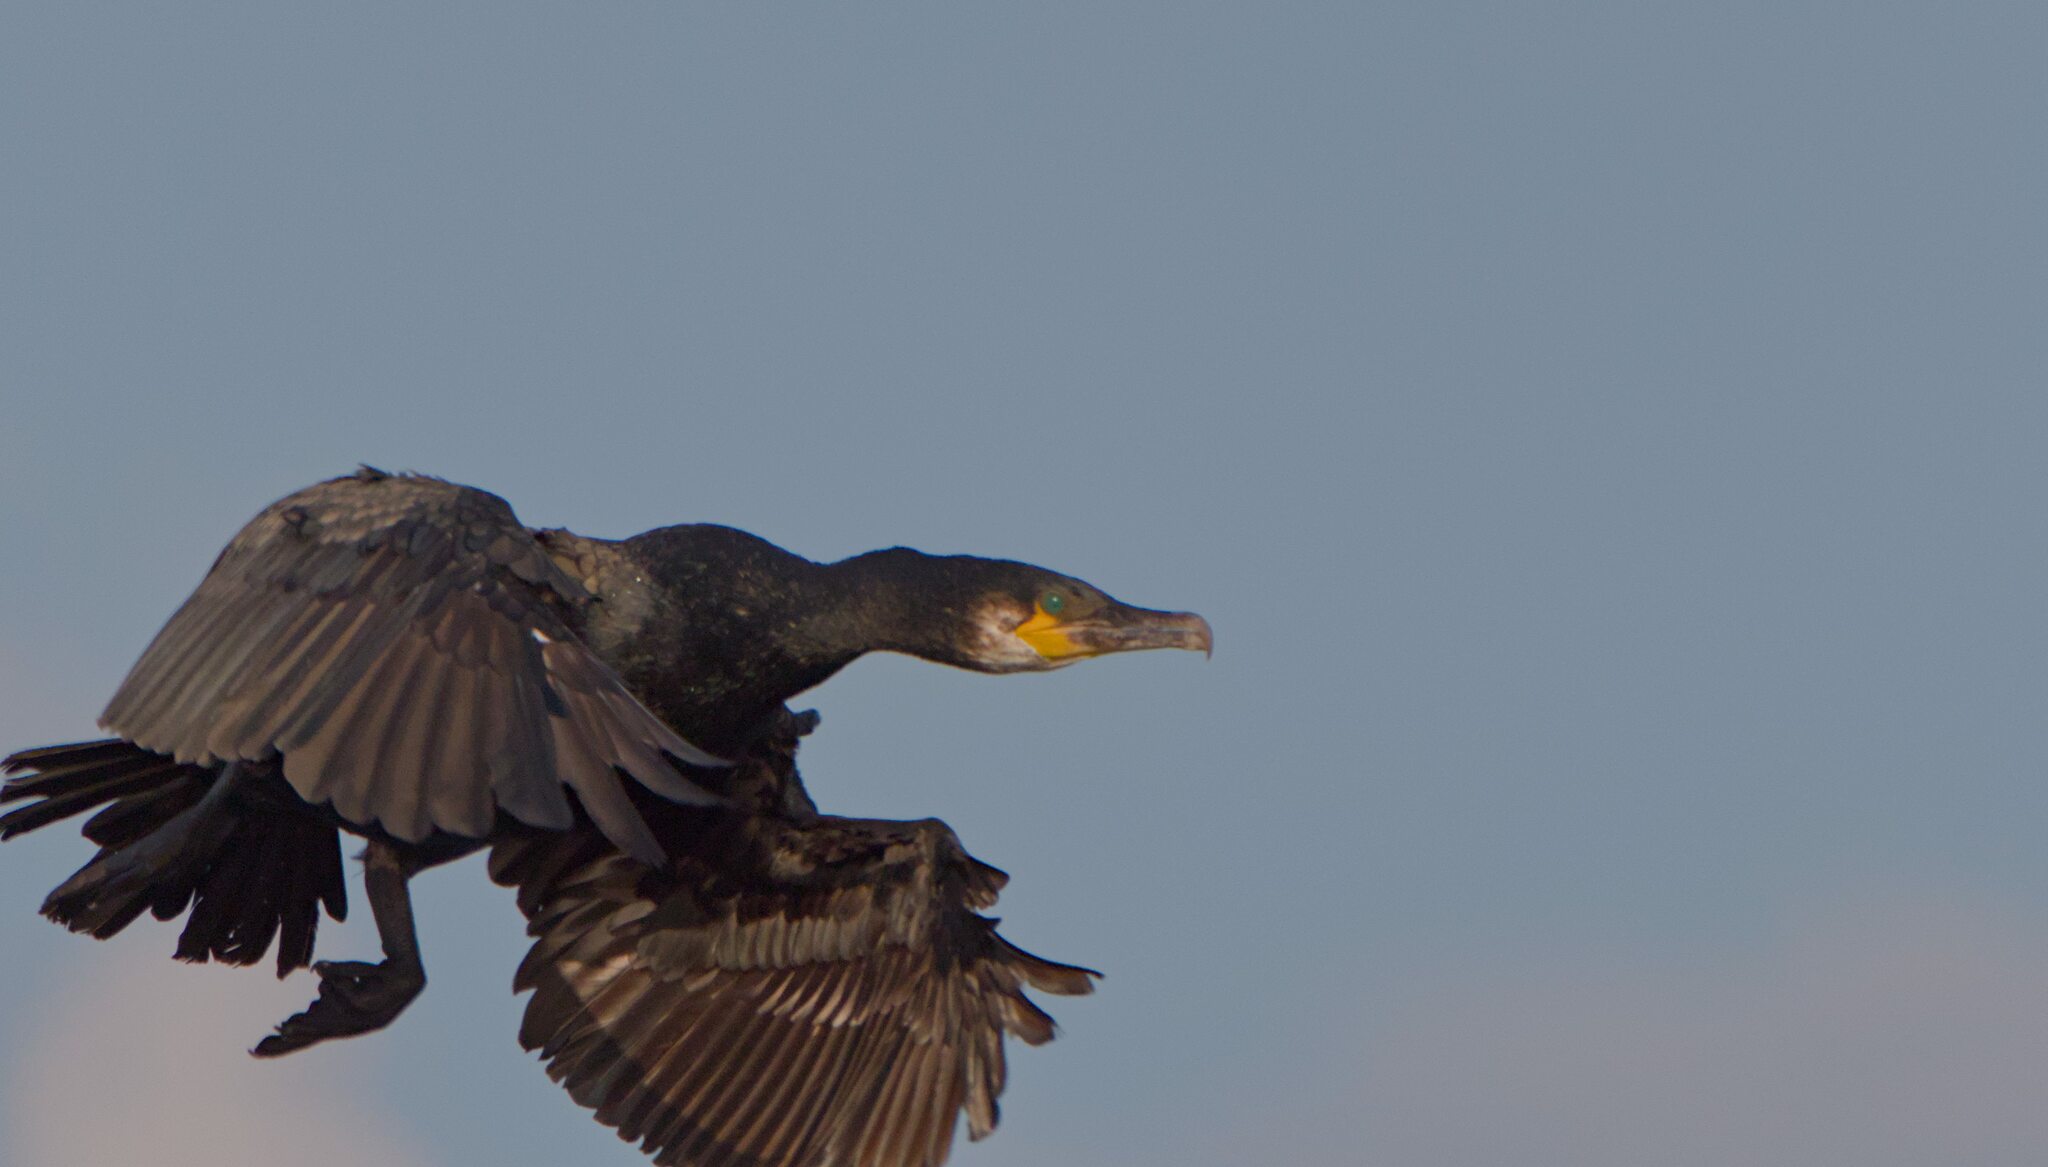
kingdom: Animalia
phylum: Chordata
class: Aves
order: Suliformes
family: Phalacrocoracidae
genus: Phalacrocorax
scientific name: Phalacrocorax carbo
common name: Great cormorant
